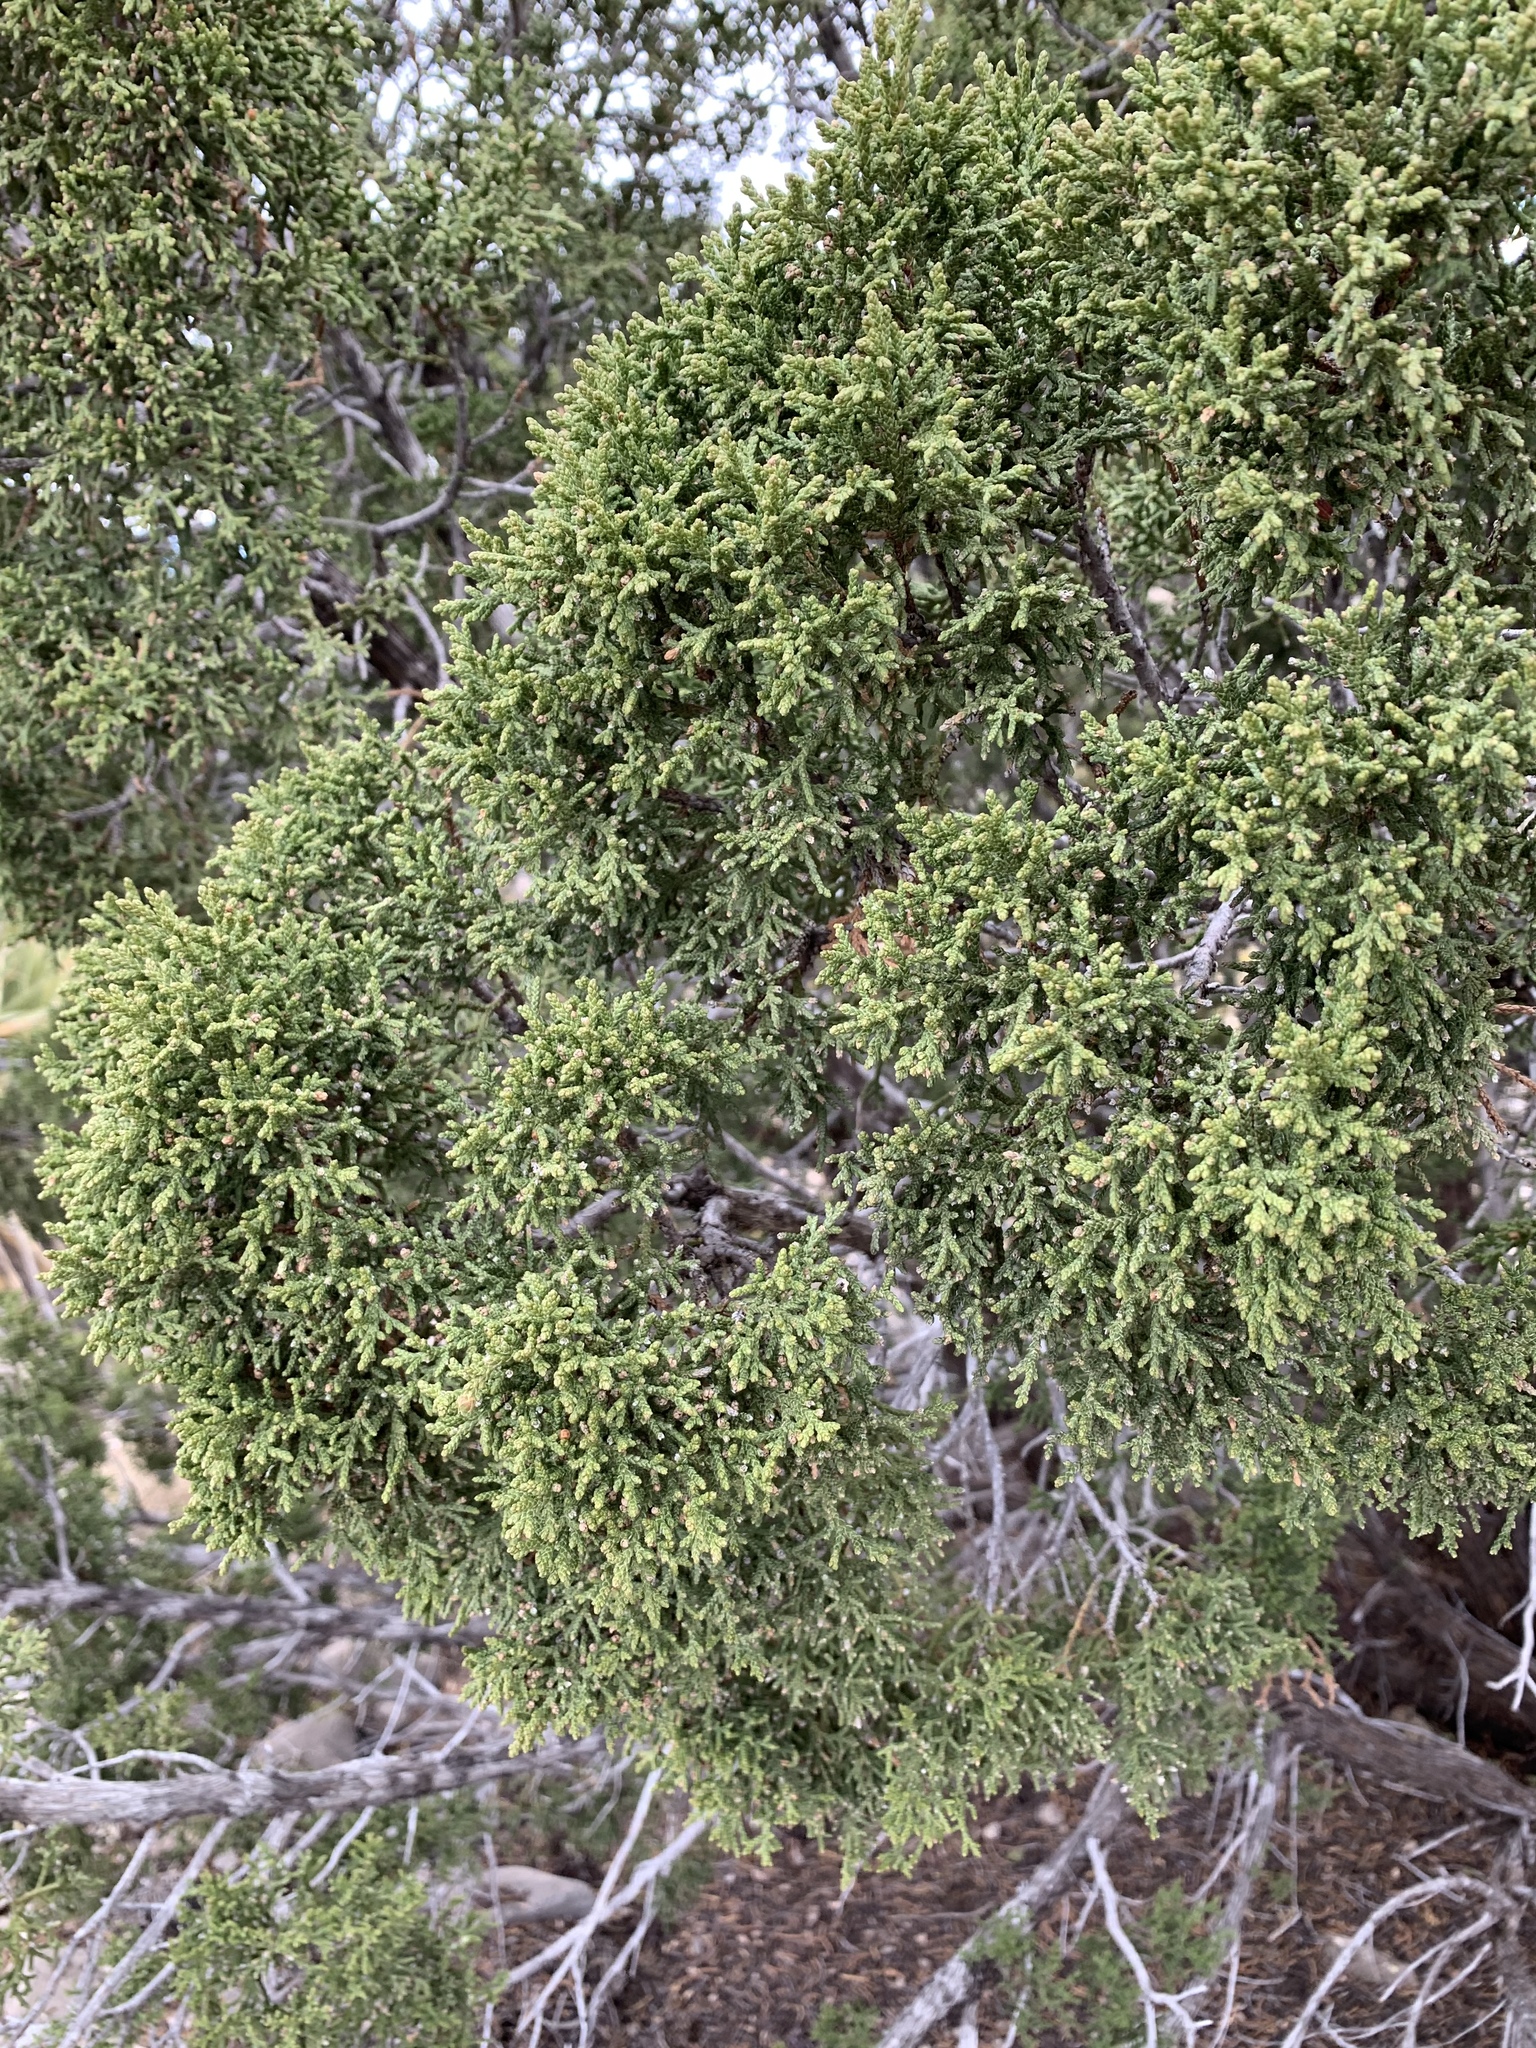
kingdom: Plantae
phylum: Tracheophyta
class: Pinopsida
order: Pinales
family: Cupressaceae
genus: Juniperus
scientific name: Juniperus monosperma
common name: One-seed juniper
